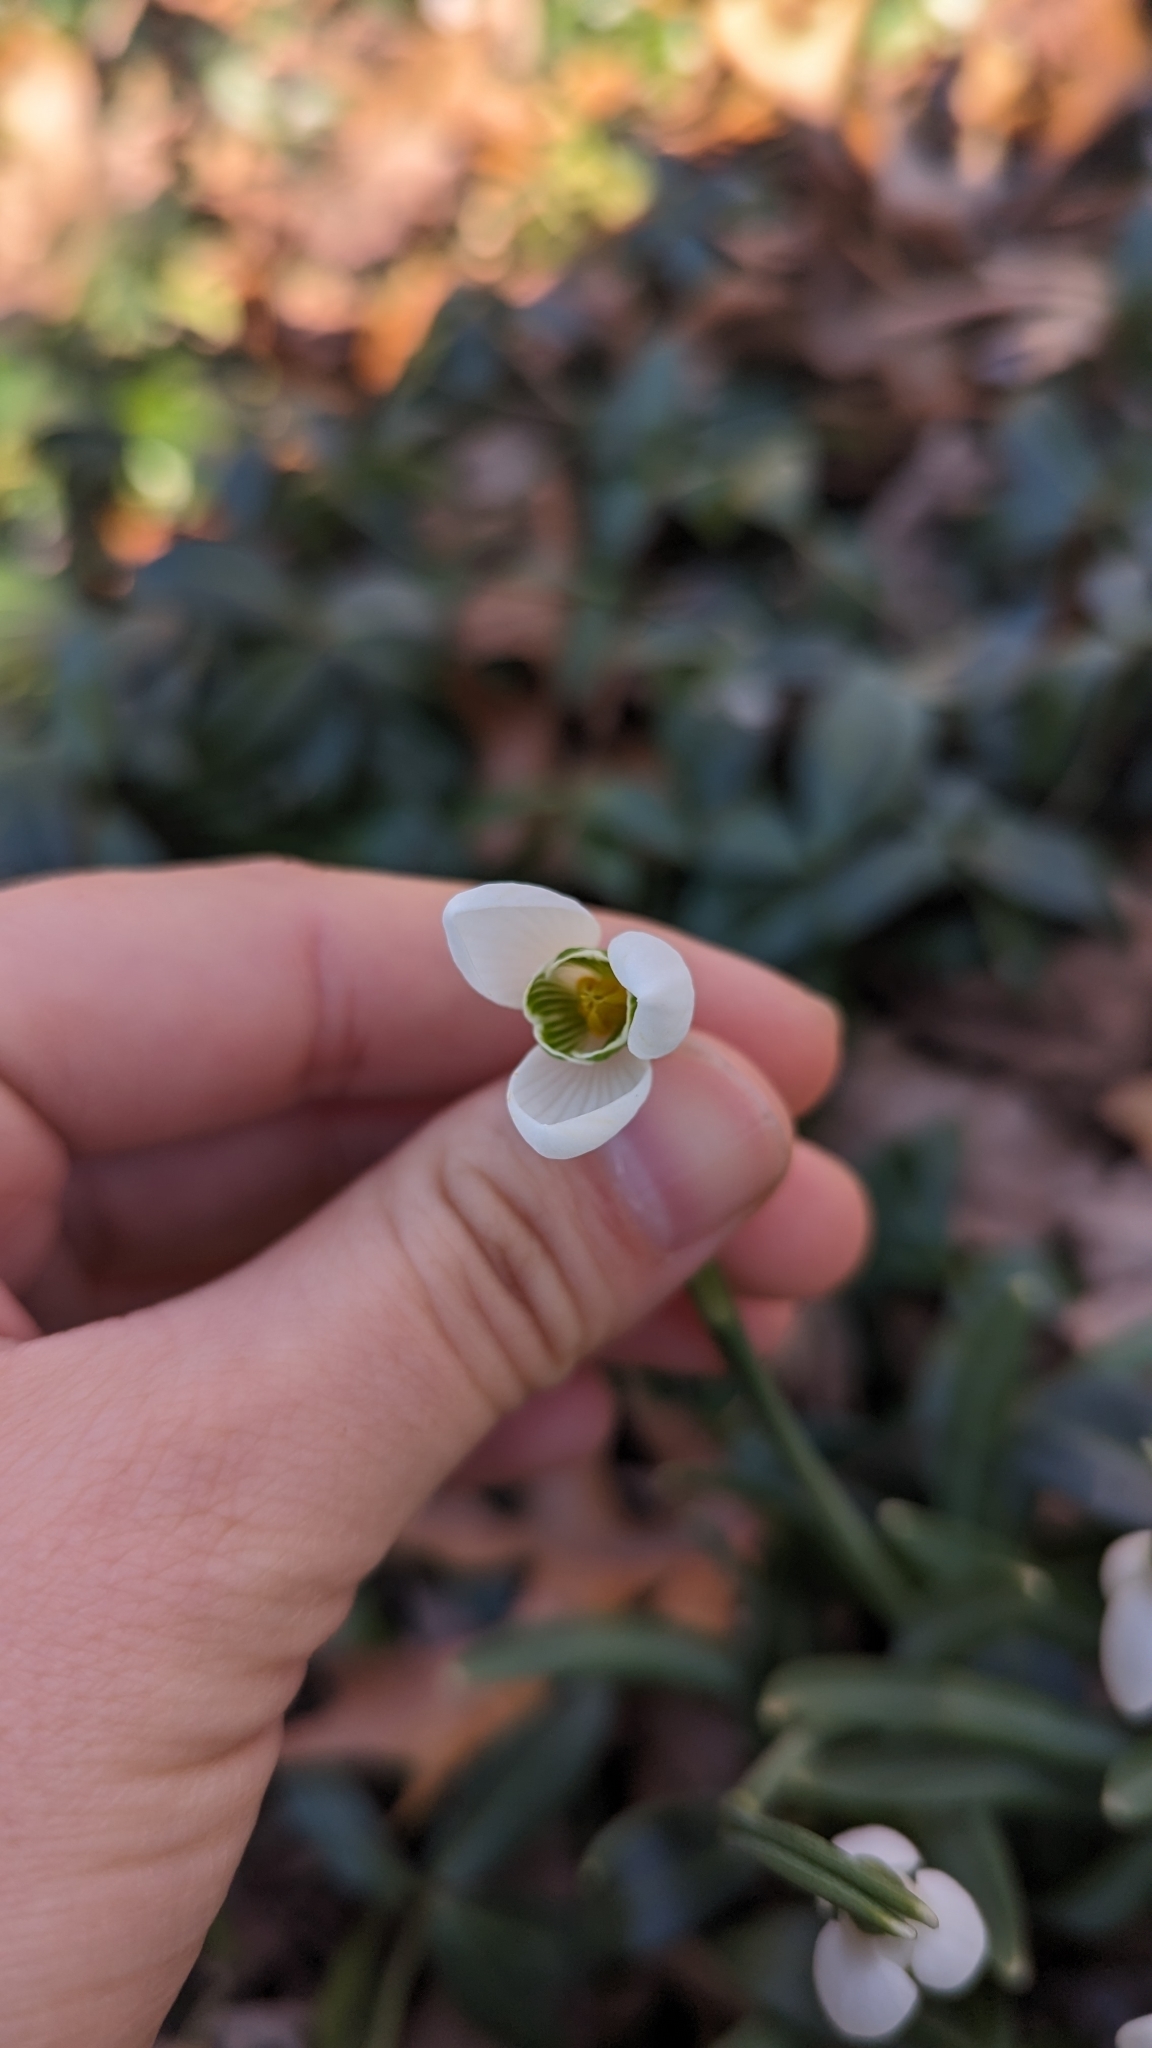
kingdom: Plantae
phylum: Tracheophyta
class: Liliopsida
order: Asparagales
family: Amaryllidaceae
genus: Galanthus
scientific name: Galanthus nivalis
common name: Snowdrop
